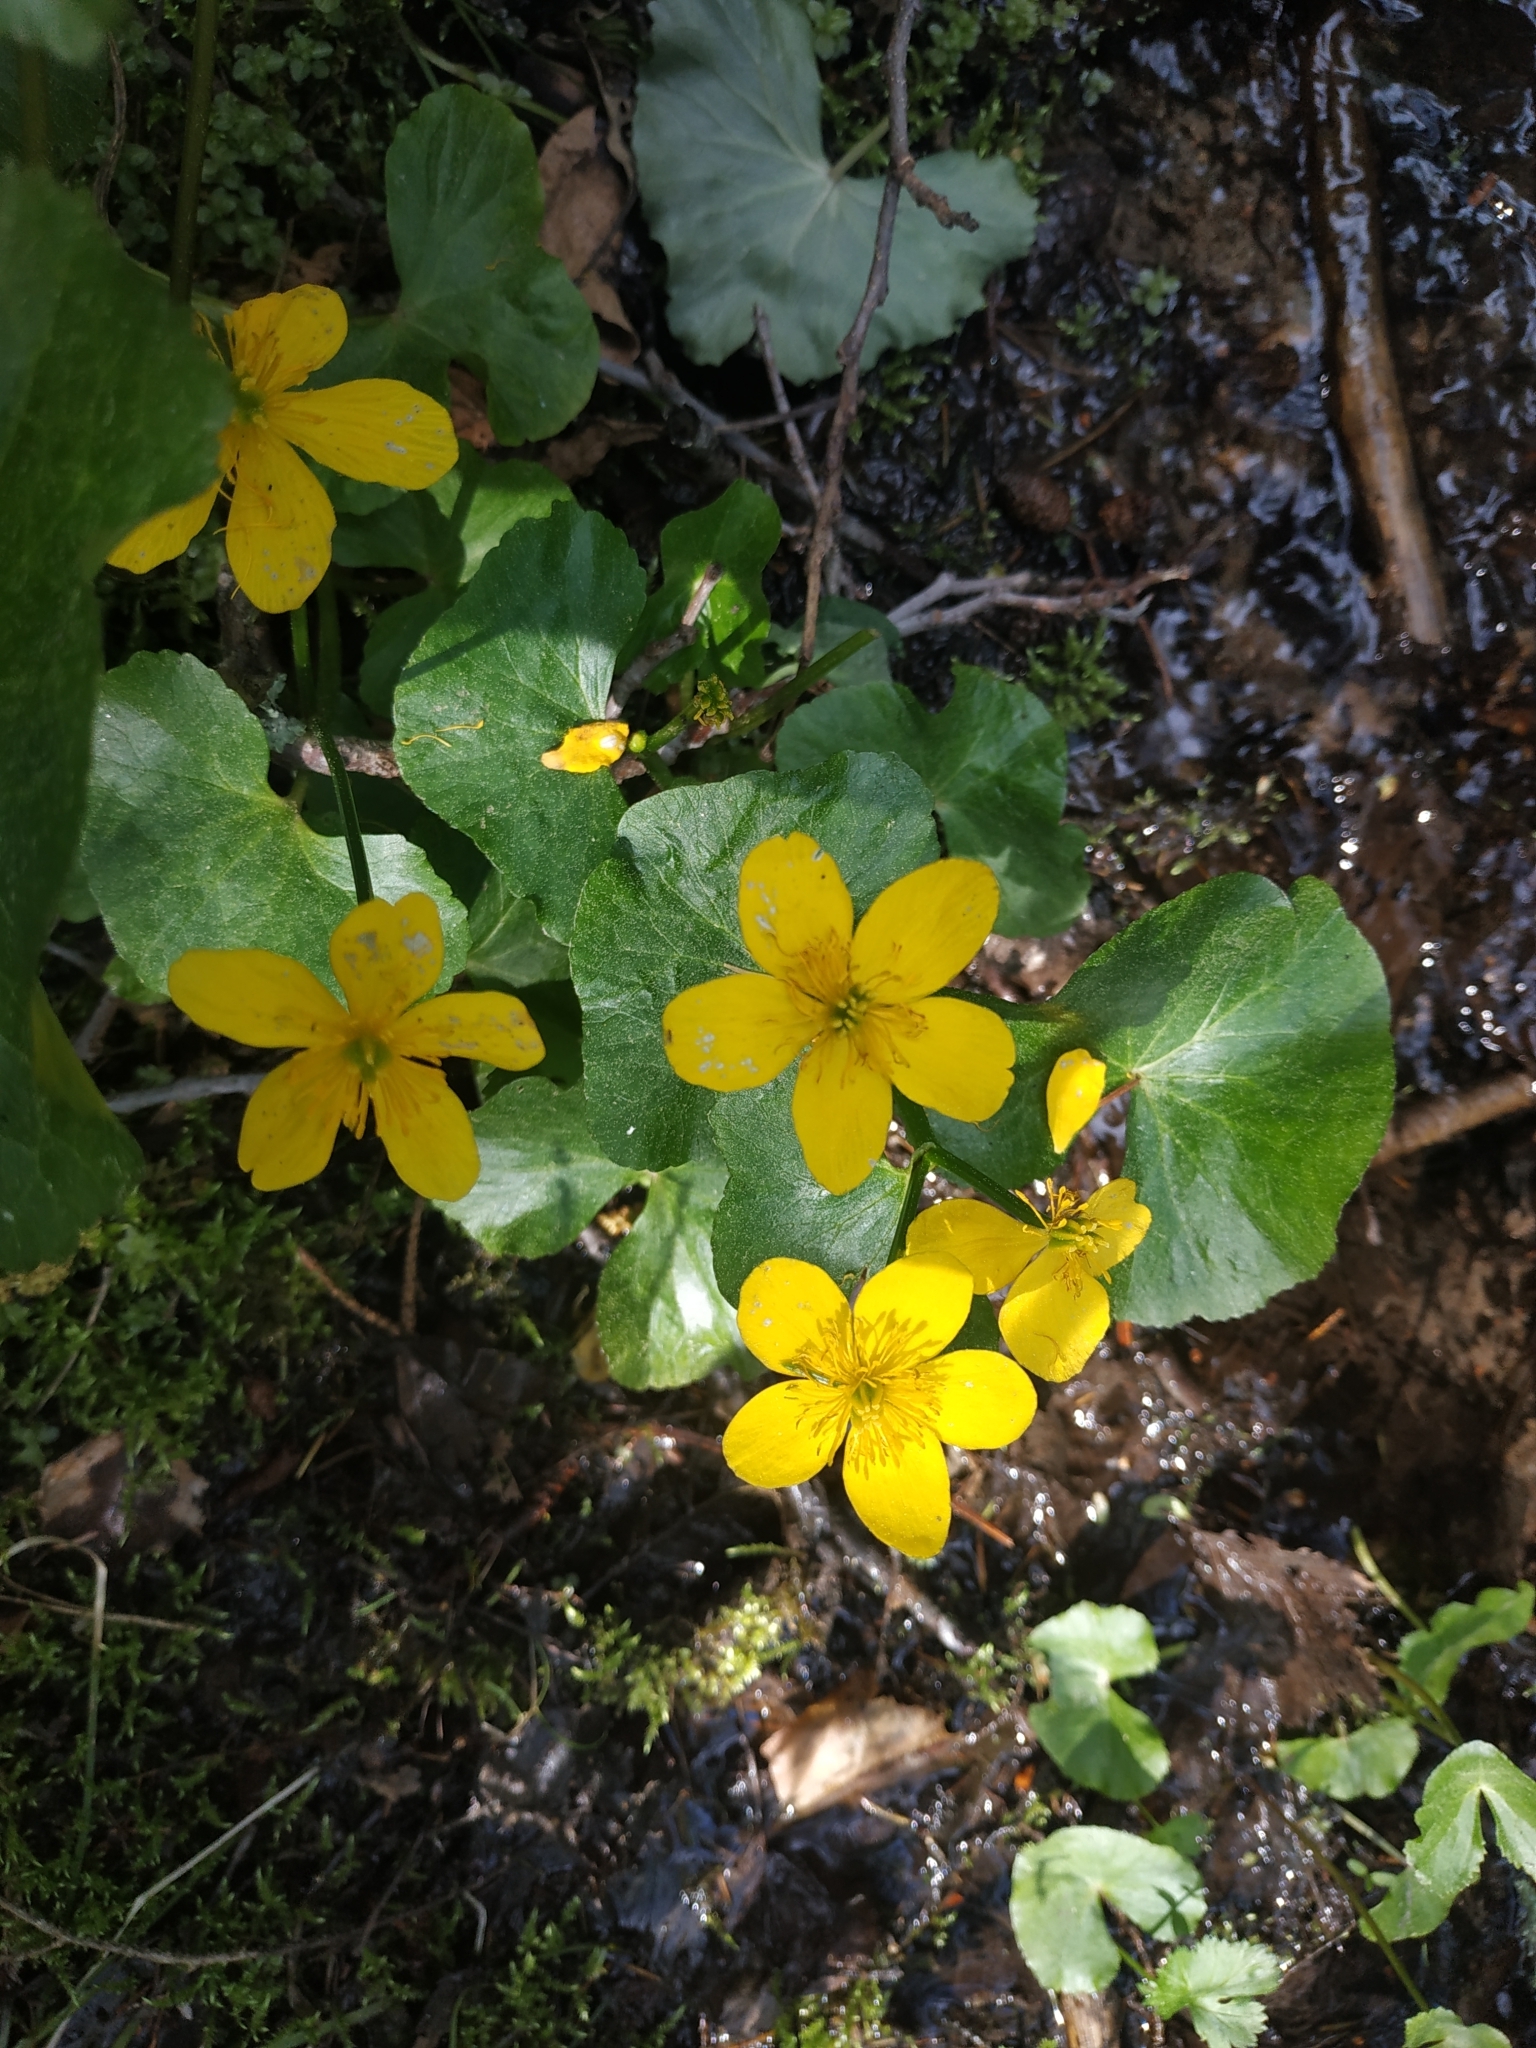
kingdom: Plantae
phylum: Tracheophyta
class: Magnoliopsida
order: Ranunculales
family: Ranunculaceae
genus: Caltha
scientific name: Caltha palustris
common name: Marsh marigold
